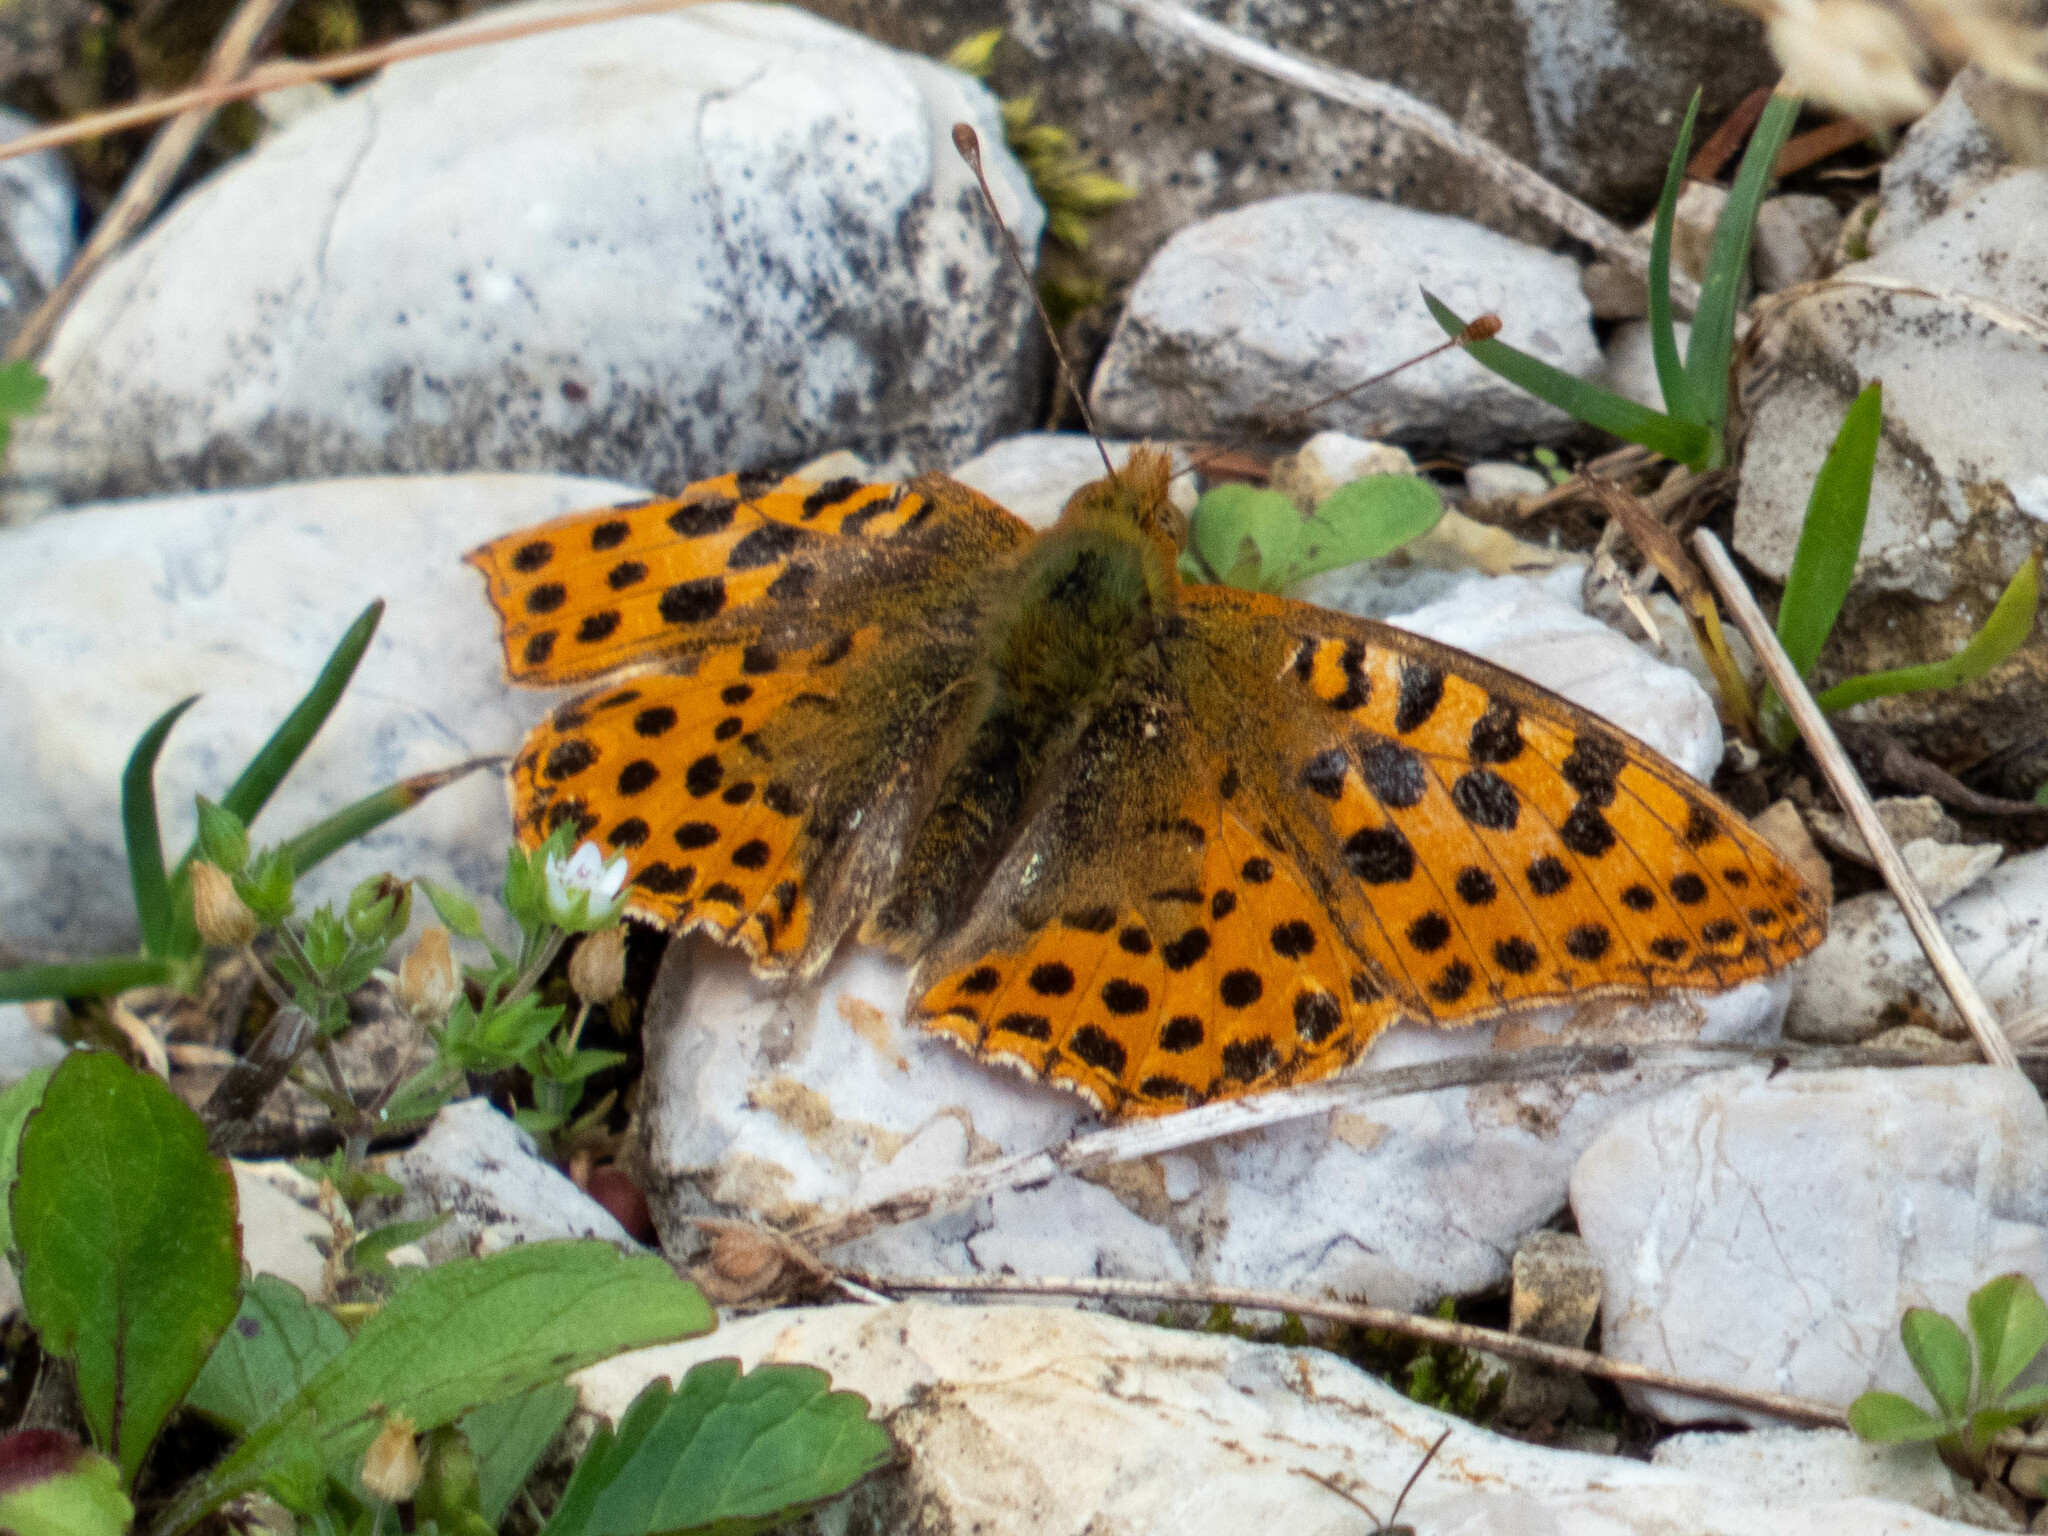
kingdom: Animalia
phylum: Arthropoda
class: Insecta
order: Lepidoptera
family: Nymphalidae
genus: Issoria
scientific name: Issoria lathonia
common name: Queen of spain fritillary
